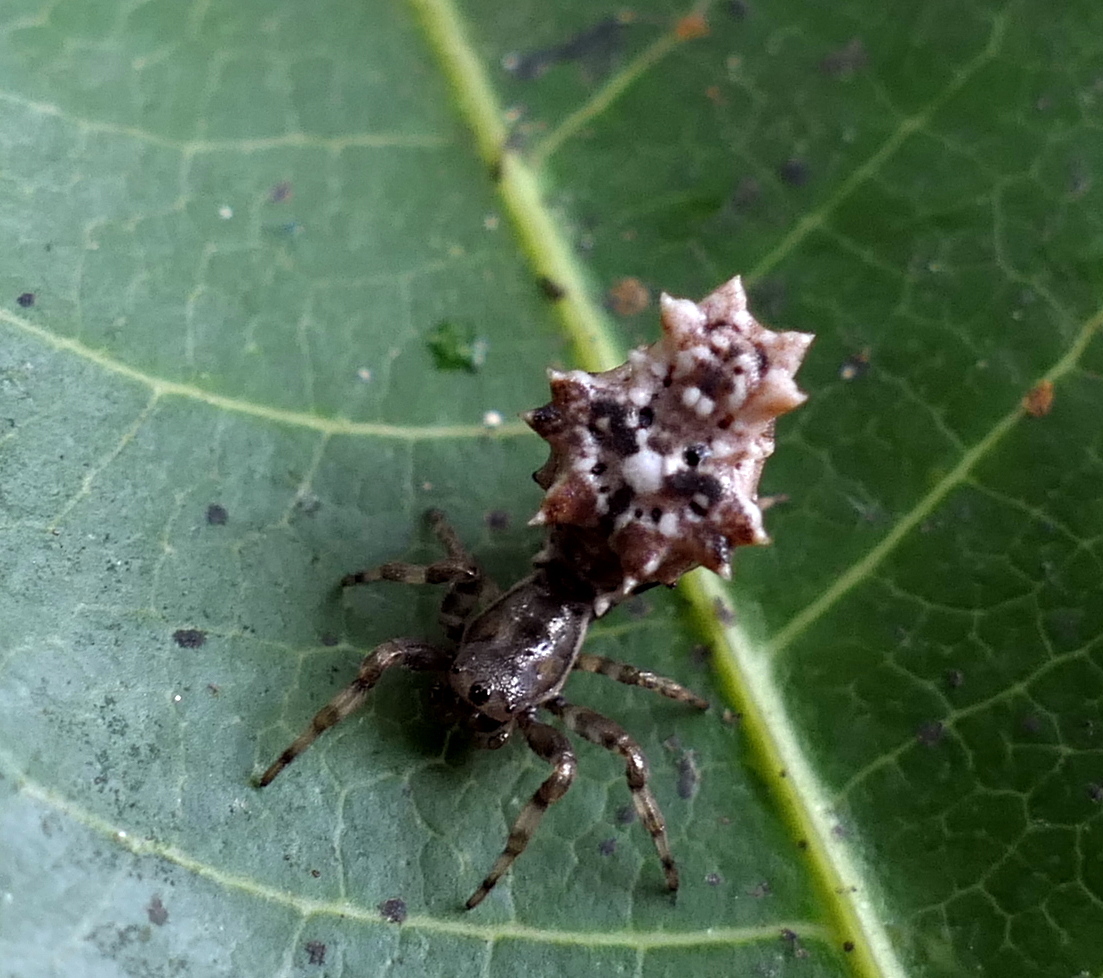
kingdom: Animalia
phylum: Arthropoda
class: Arachnida
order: Araneae
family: Araneidae
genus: Micrathena
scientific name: Micrathena horrida
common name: Orb weavers
